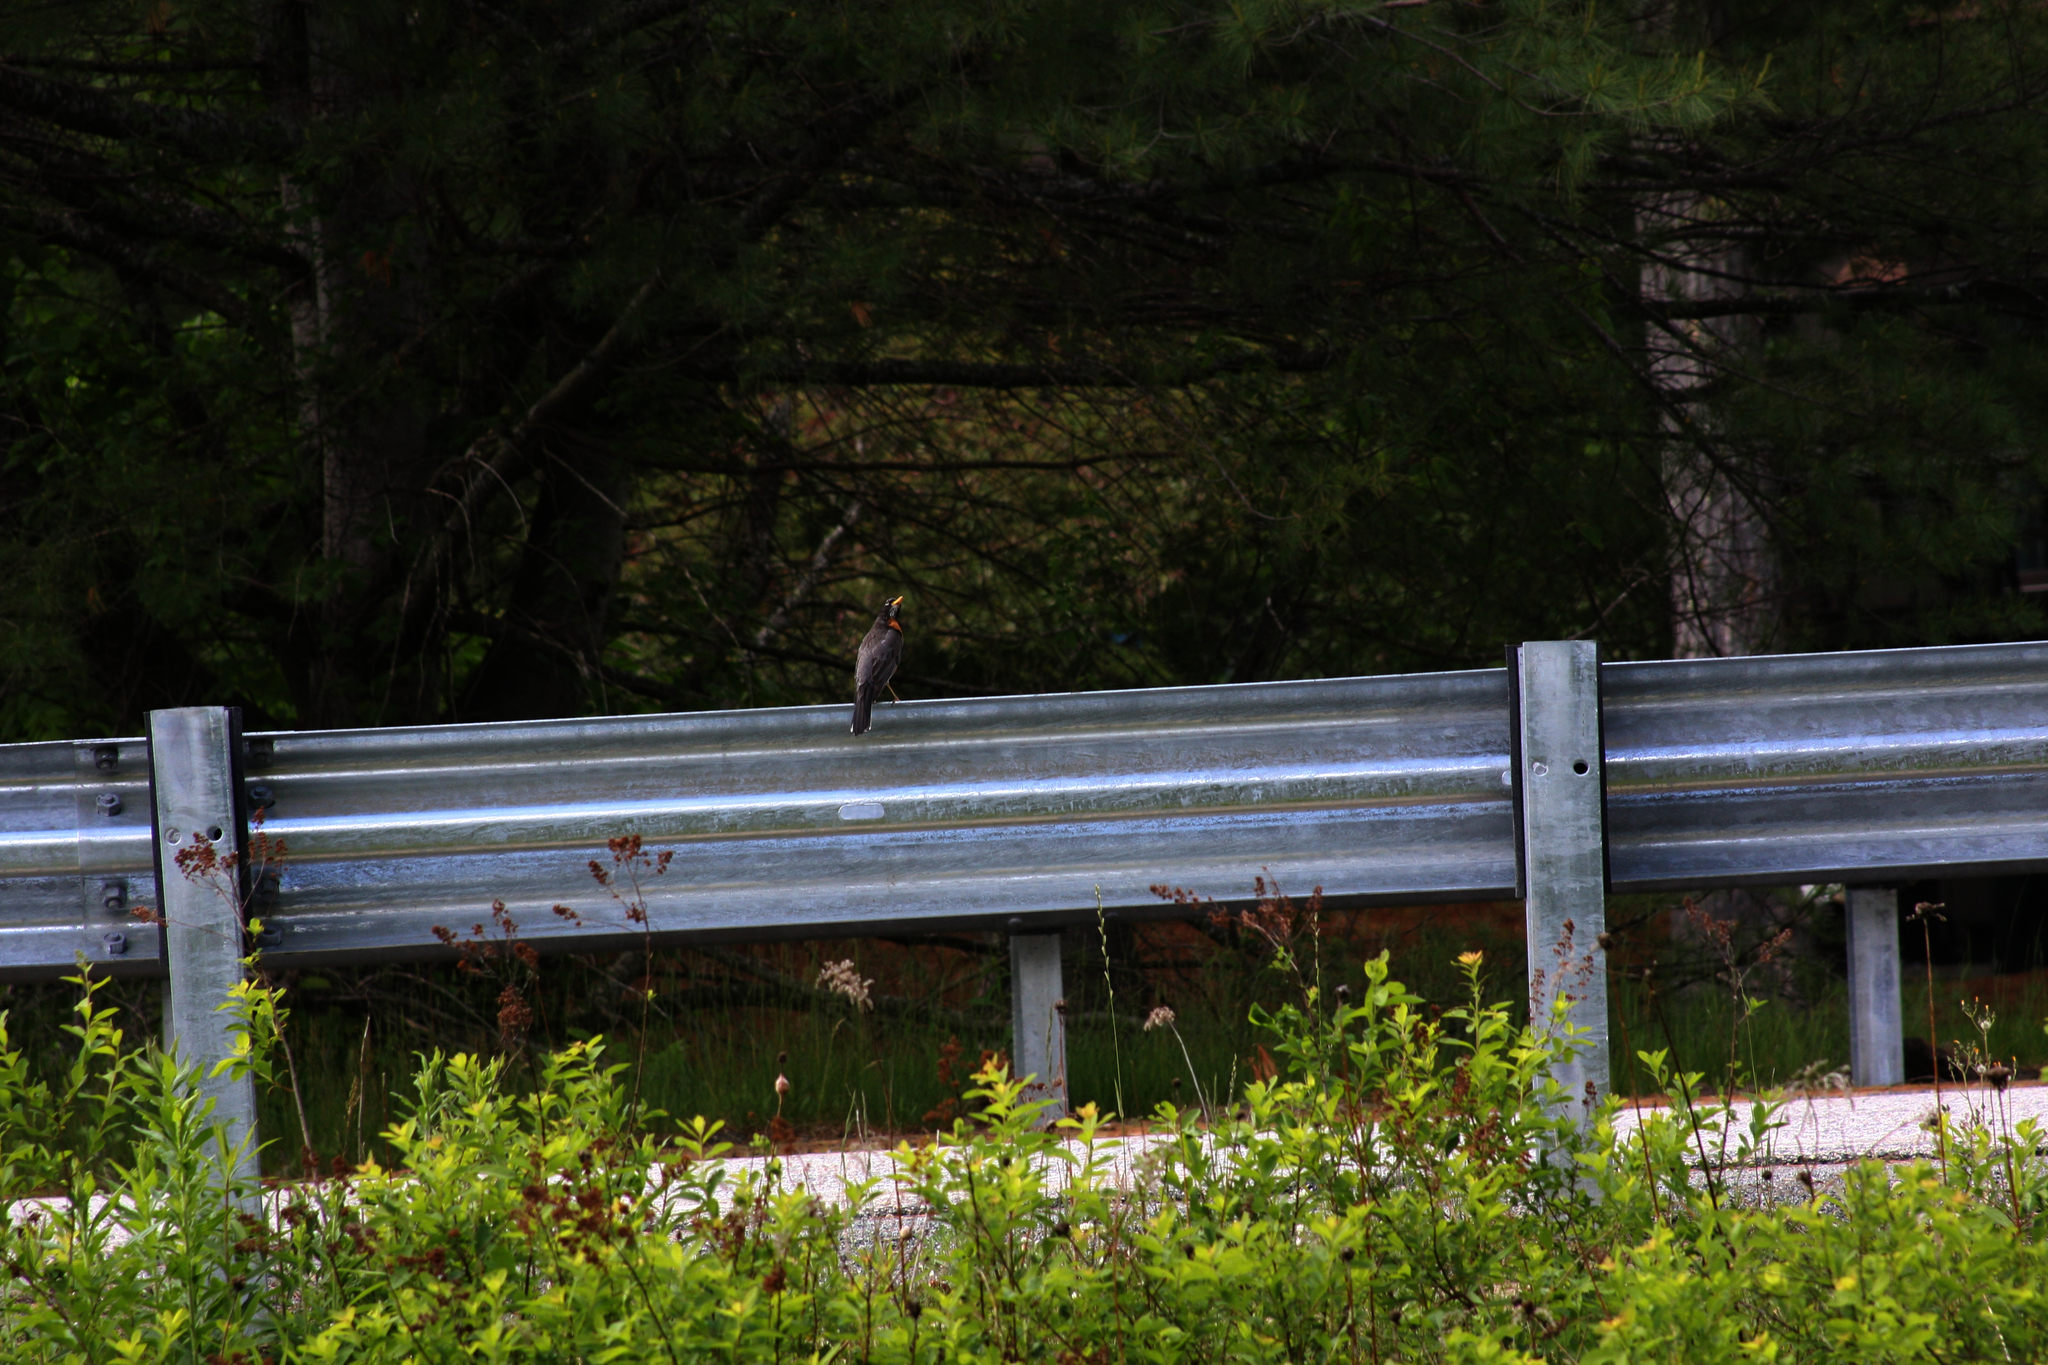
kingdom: Animalia
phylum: Chordata
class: Aves
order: Passeriformes
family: Turdidae
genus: Turdus
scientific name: Turdus migratorius
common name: American robin
